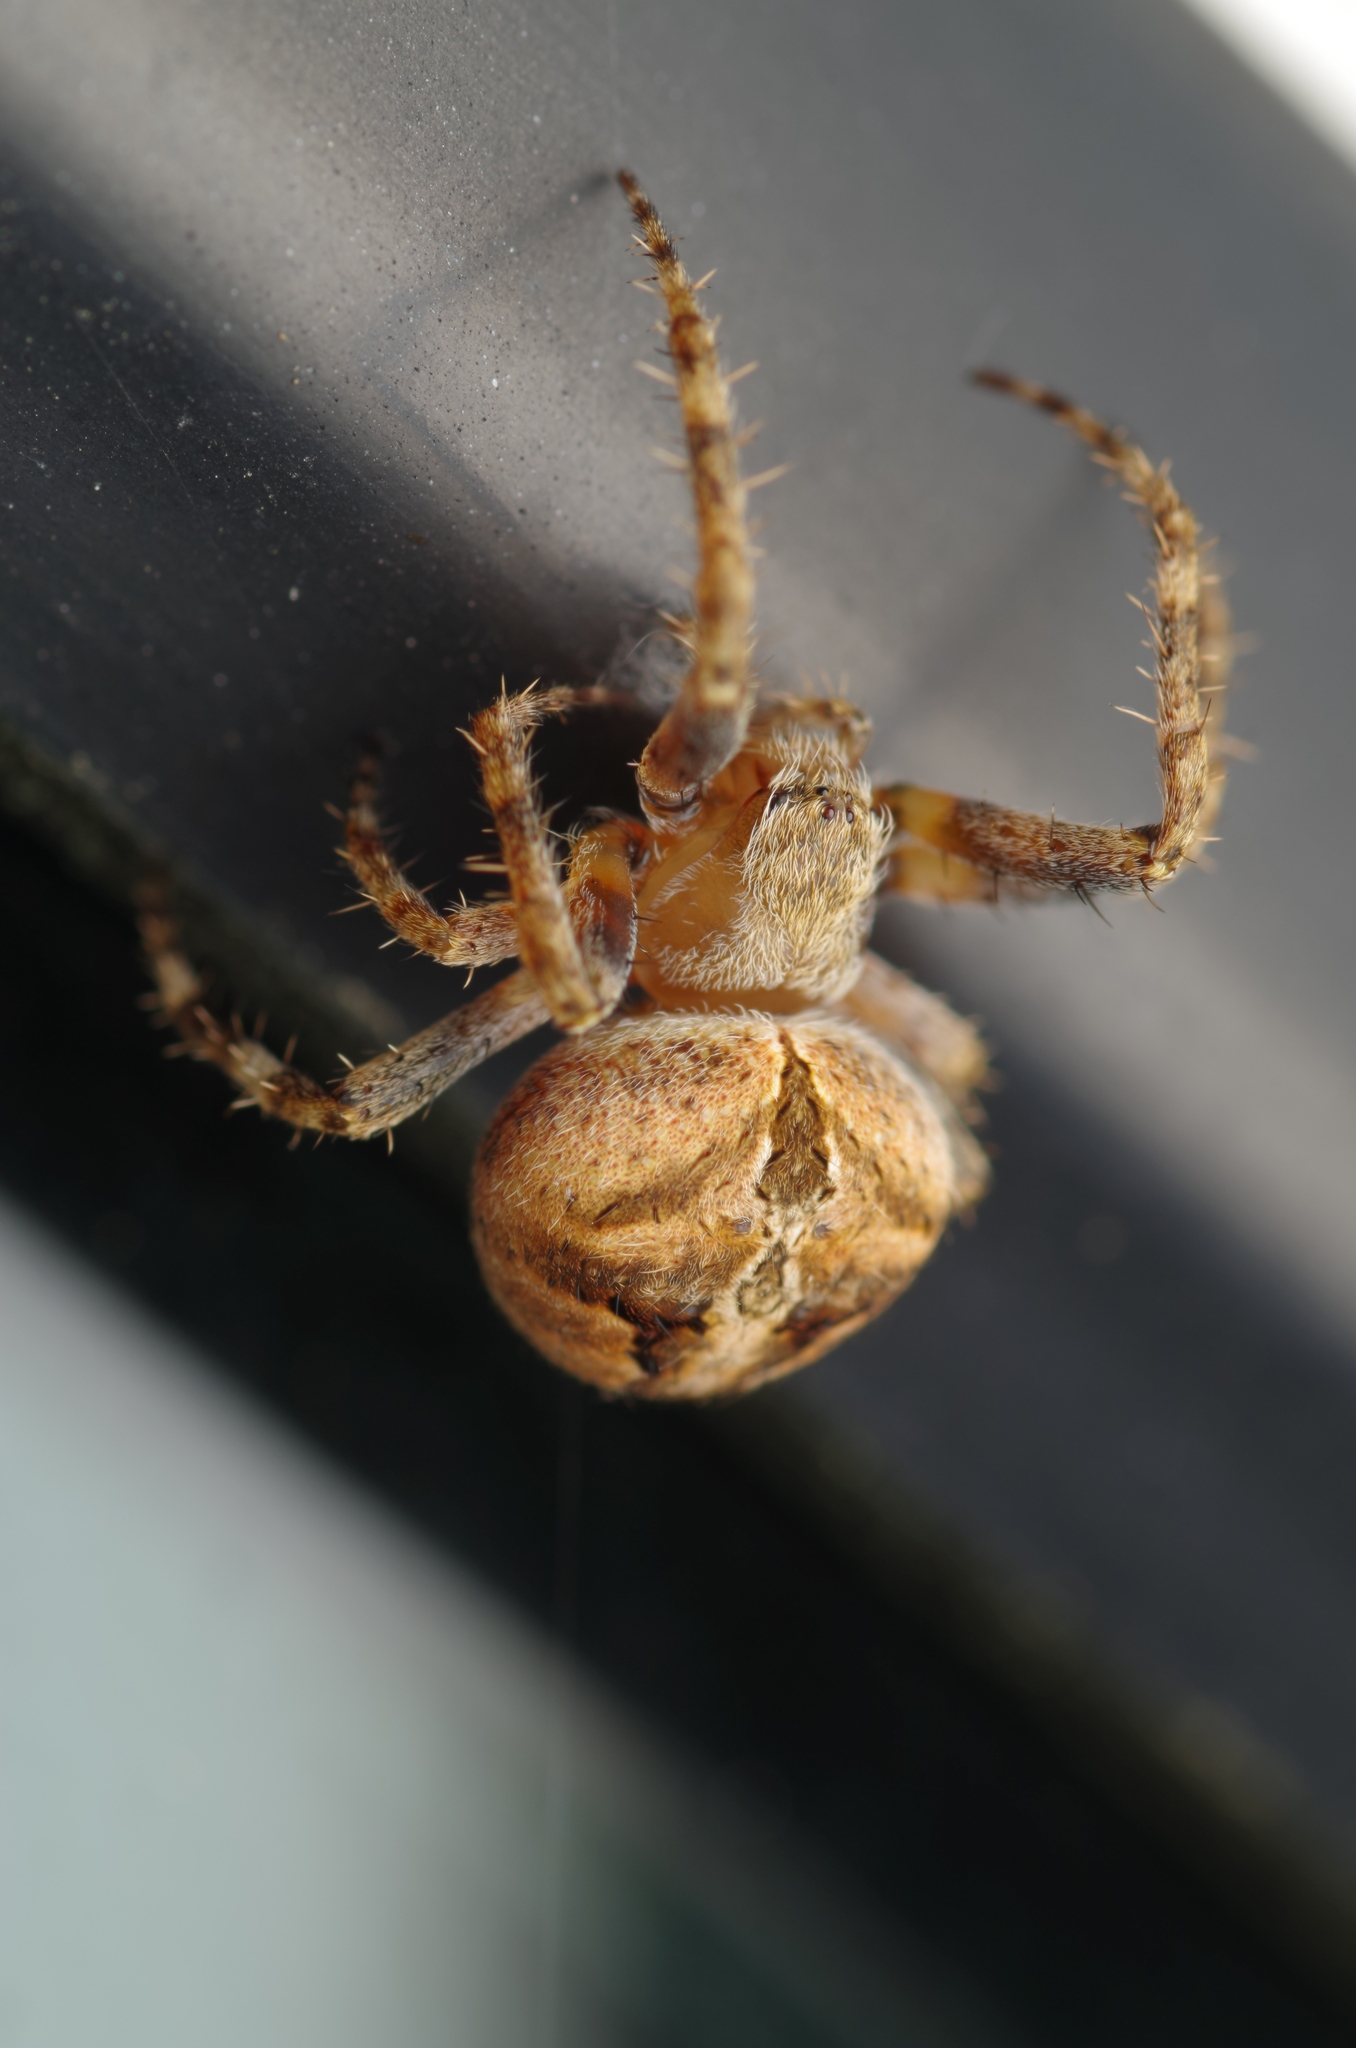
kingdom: Animalia
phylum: Arthropoda
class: Arachnida
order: Araneae
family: Araneidae
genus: Neoscona
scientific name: Neoscona subfusca
